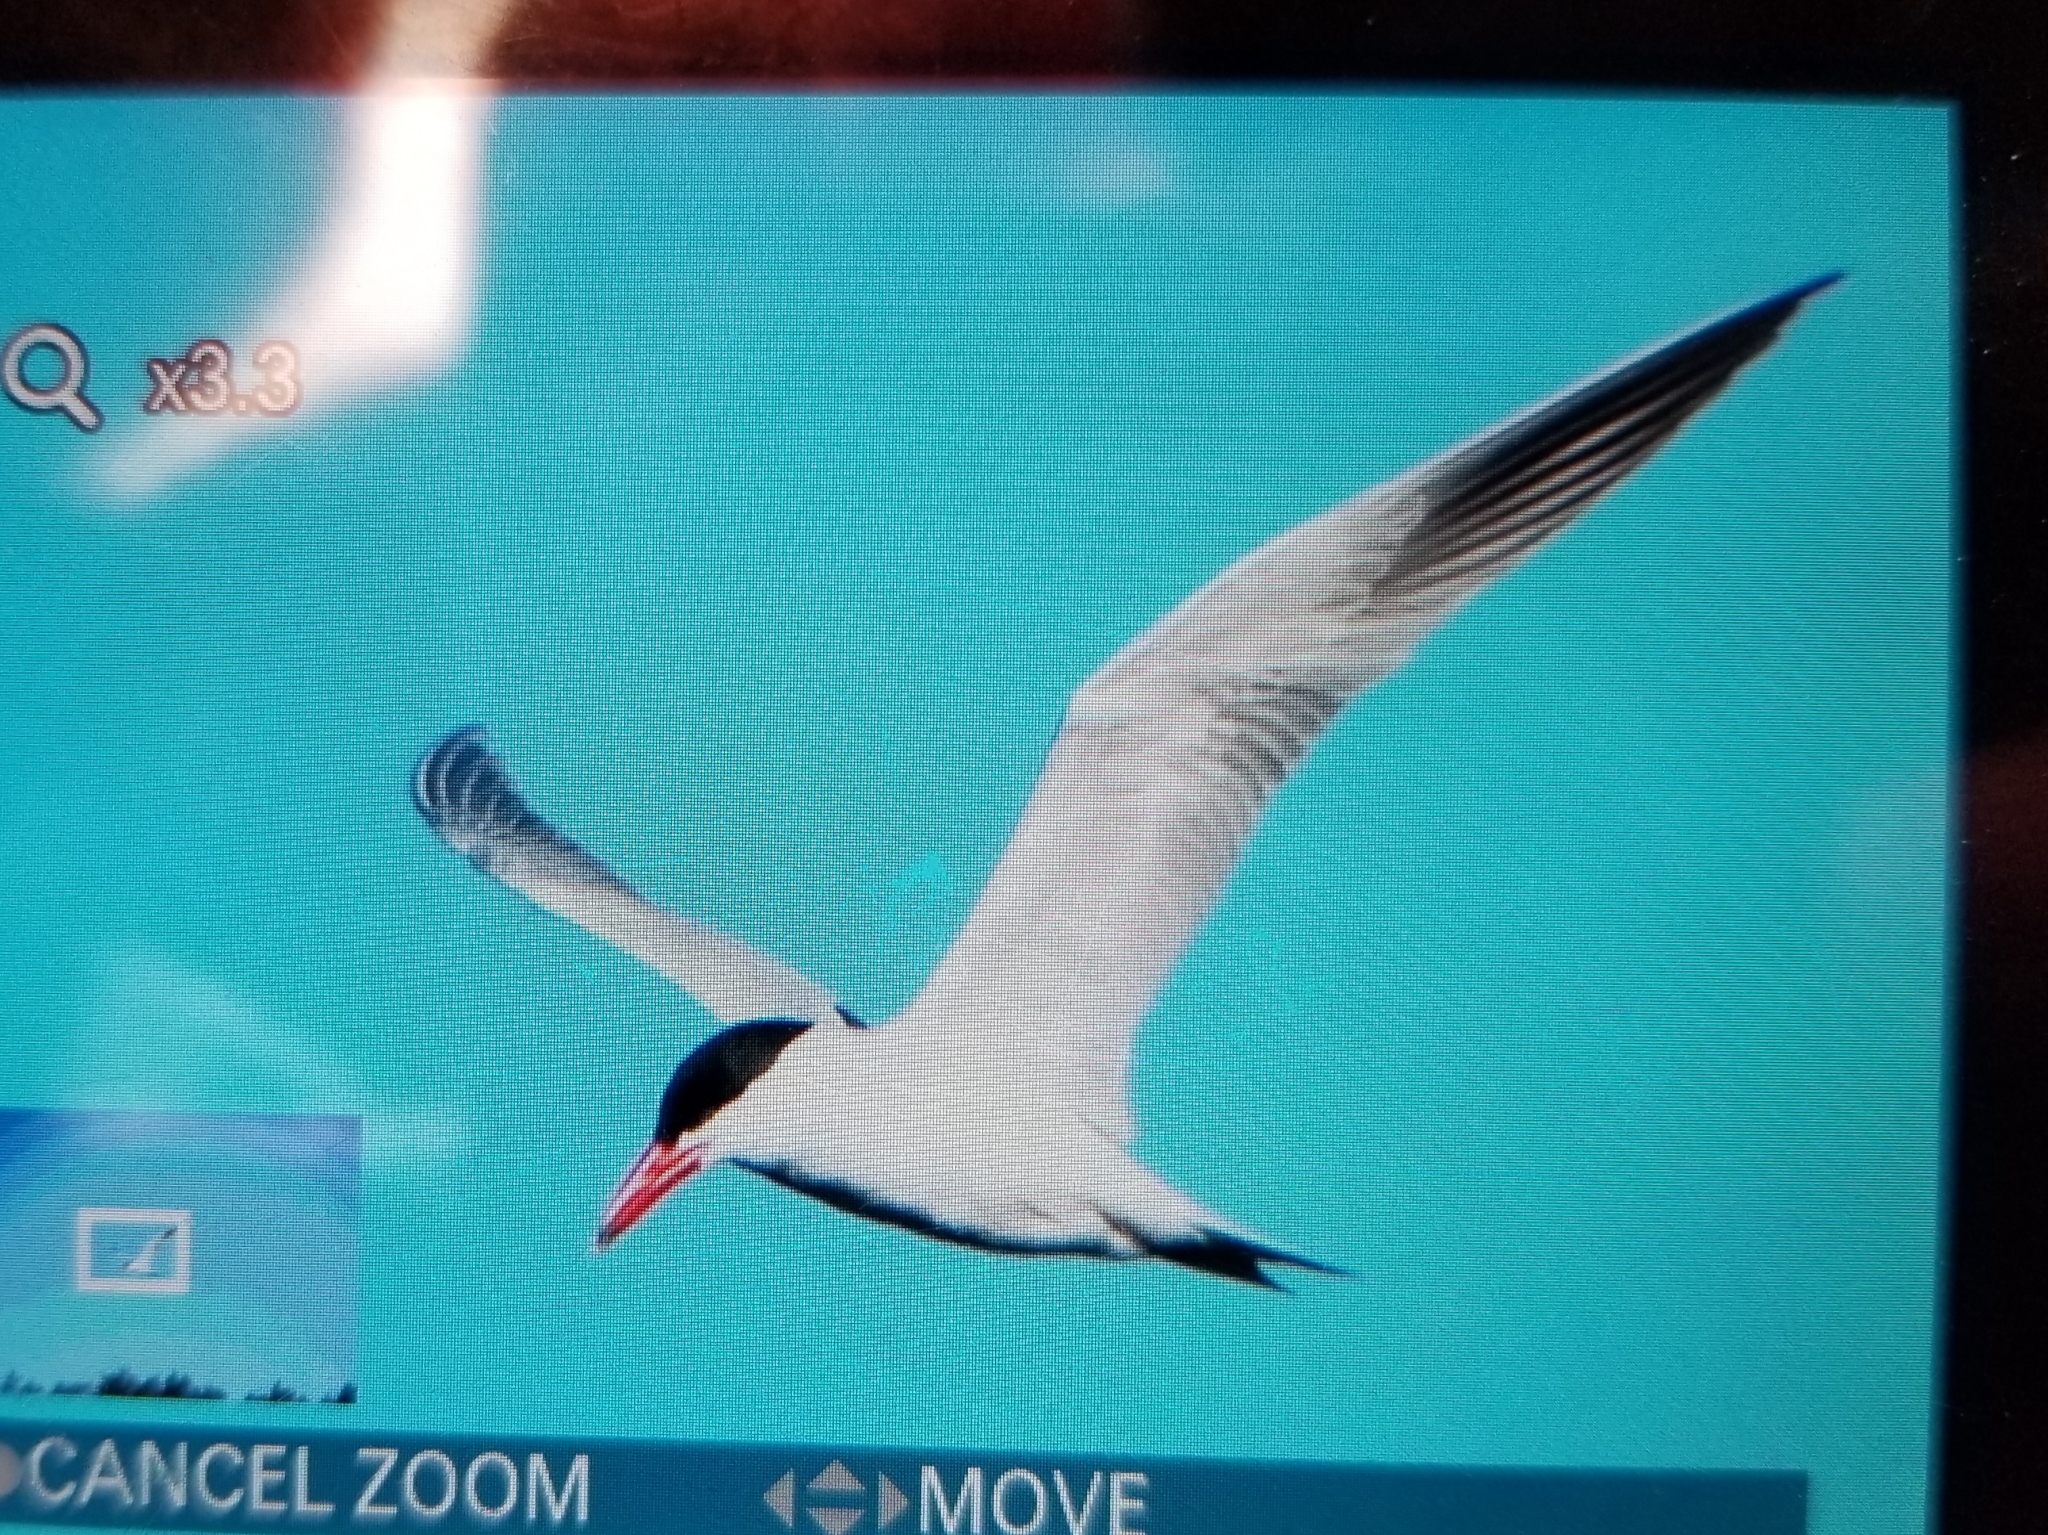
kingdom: Animalia
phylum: Chordata
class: Aves
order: Charadriiformes
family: Laridae
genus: Hydroprogne
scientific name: Hydroprogne caspia
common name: Caspian tern
